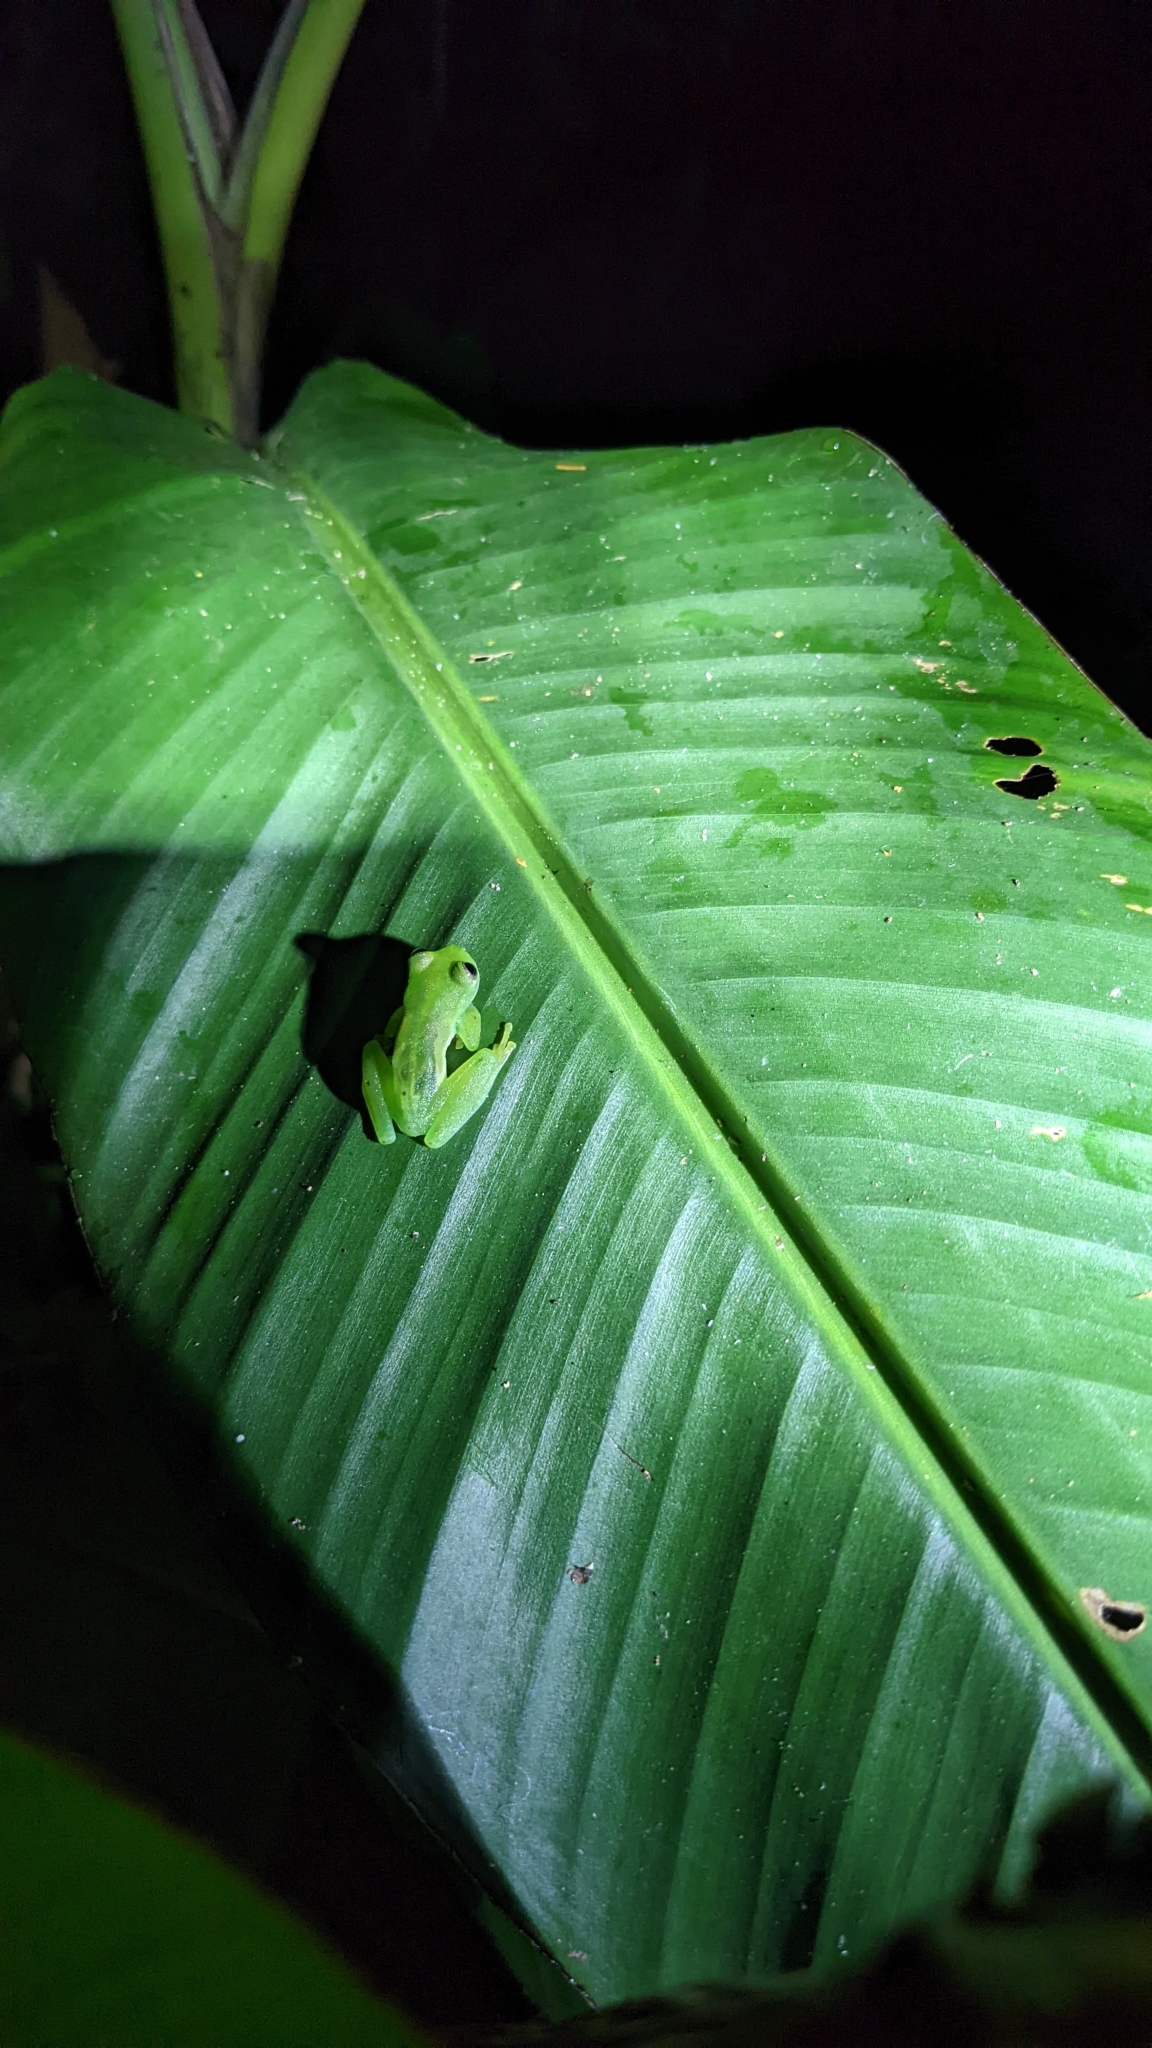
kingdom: Animalia
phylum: Chordata
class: Amphibia
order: Anura
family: Centrolenidae
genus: Espadarana
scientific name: Espadarana prosoblepon
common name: Rana de cristal variable
